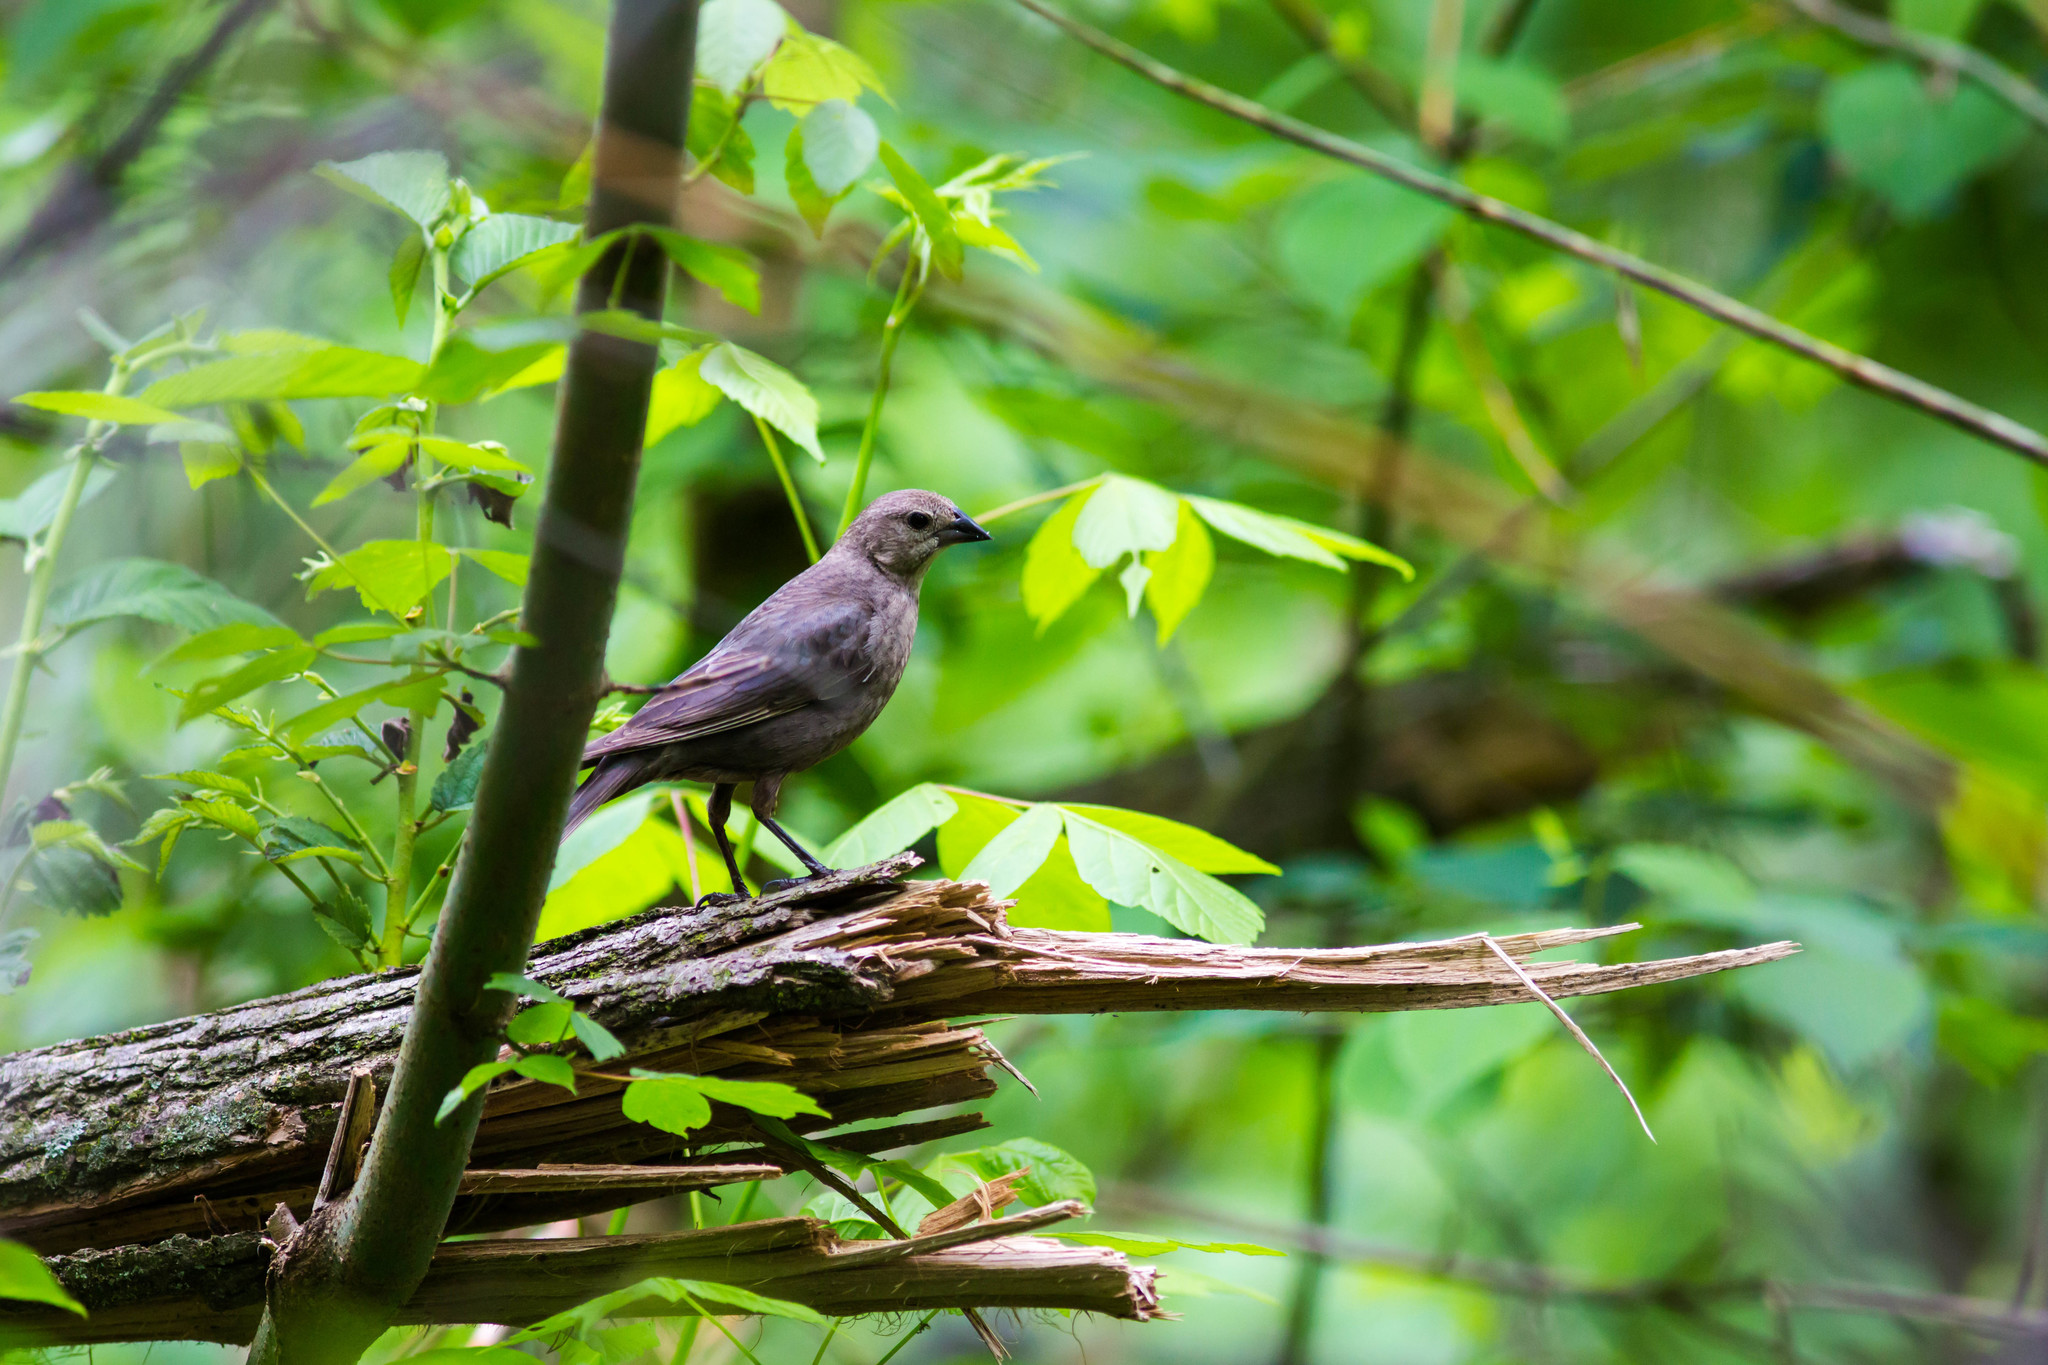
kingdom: Animalia
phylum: Chordata
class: Aves
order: Passeriformes
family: Icteridae
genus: Molothrus
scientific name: Molothrus ater
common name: Brown-headed cowbird
